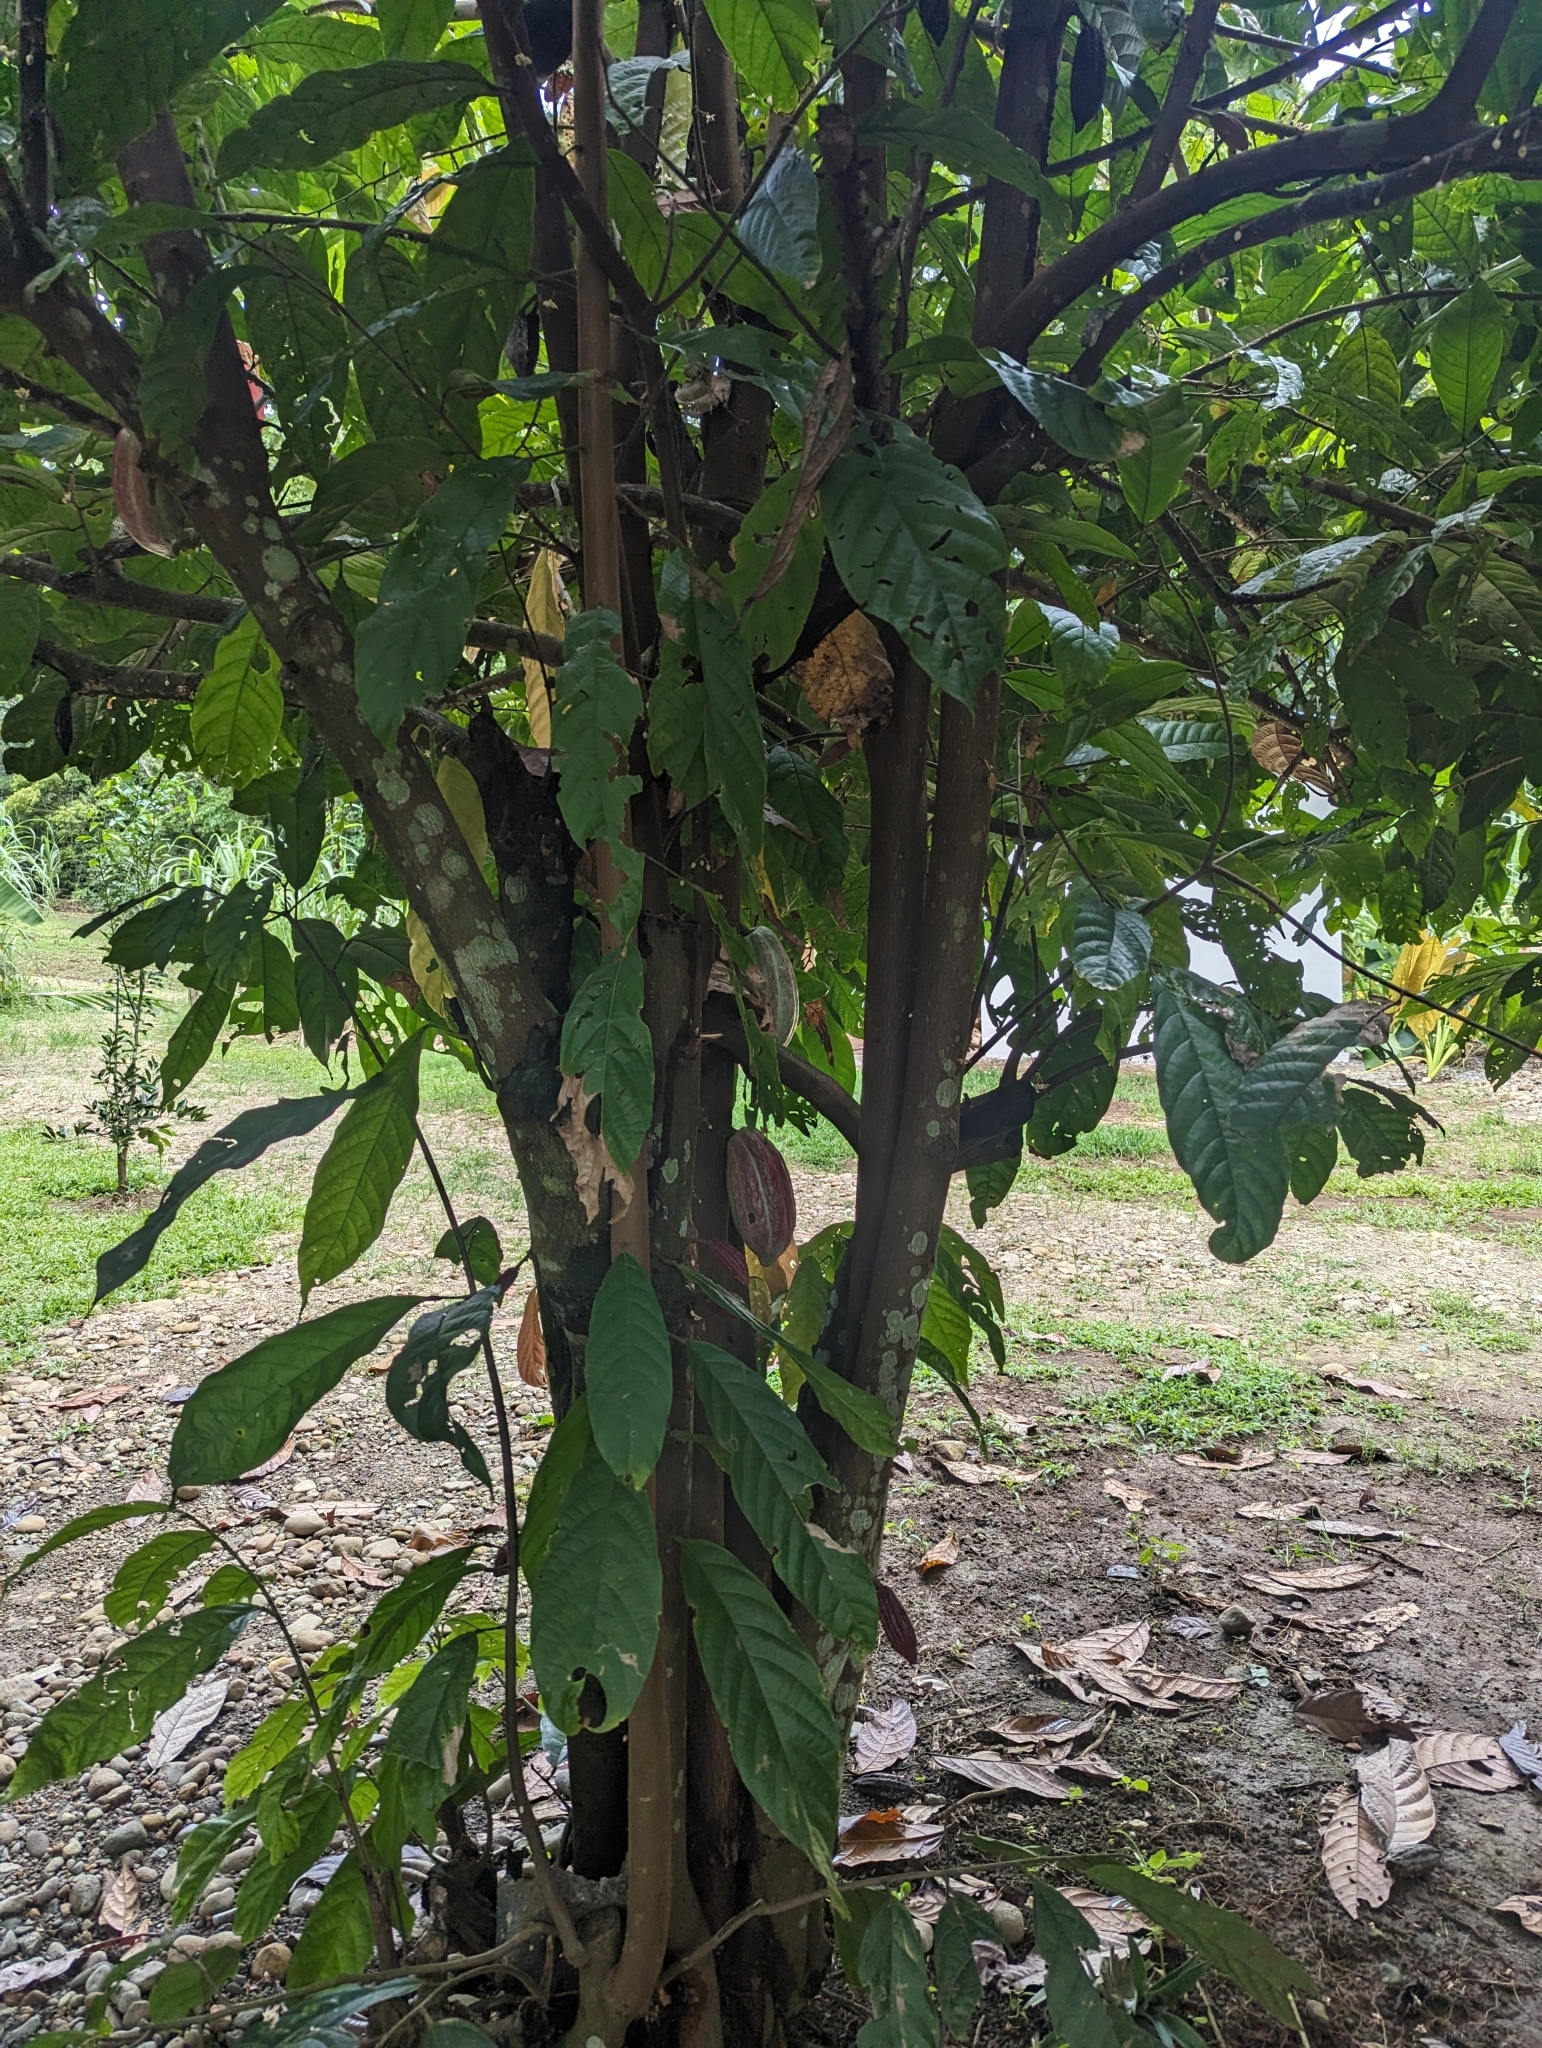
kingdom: Plantae
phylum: Tracheophyta
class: Magnoliopsida
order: Malvales
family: Malvaceae
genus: Theobroma
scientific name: Theobroma cacao
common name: Cocoa
